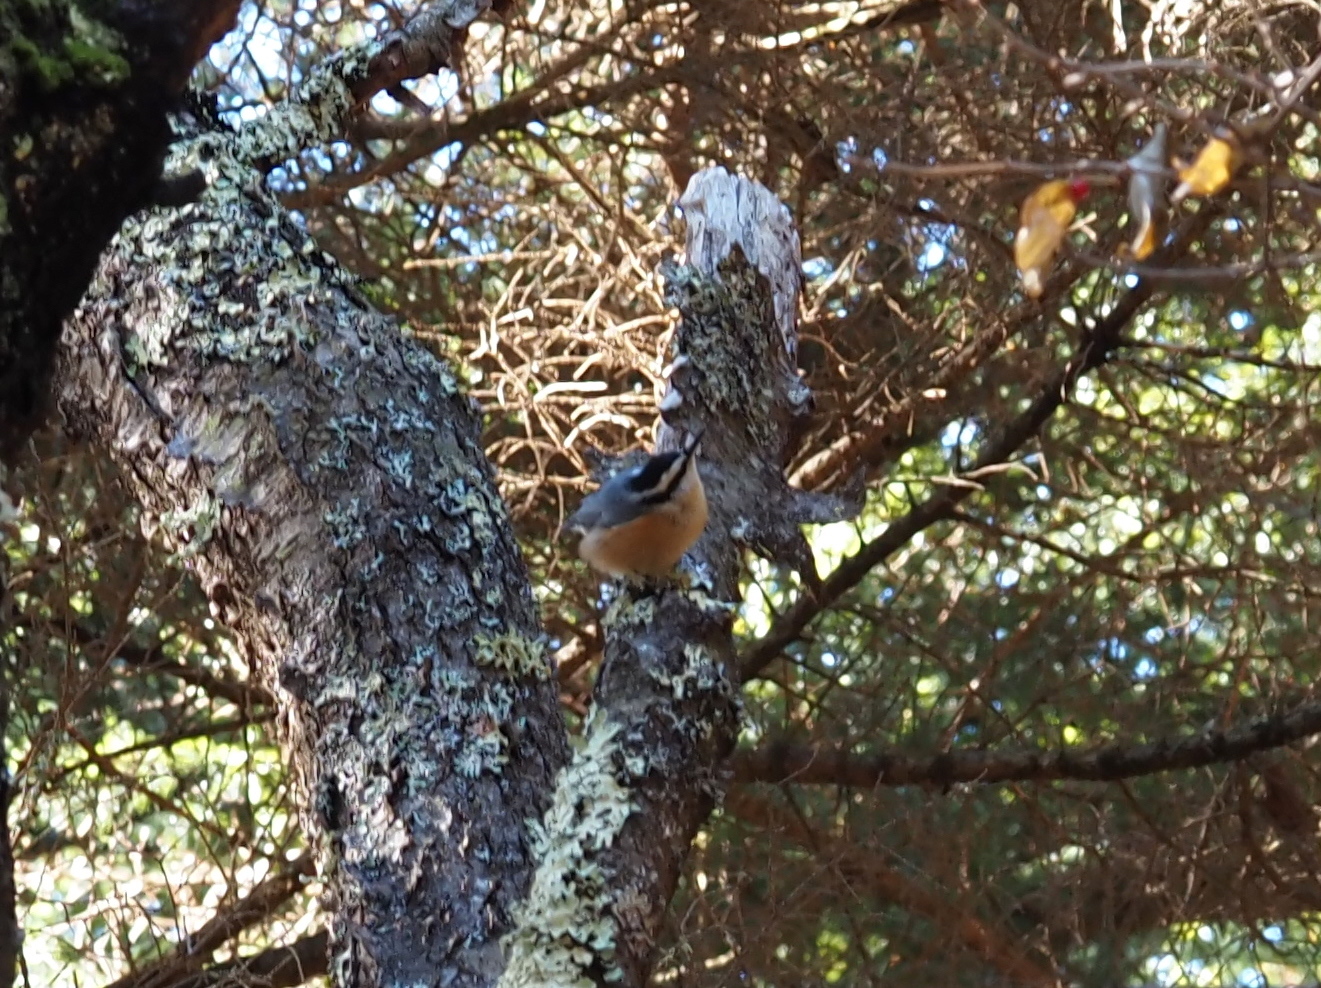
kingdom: Animalia
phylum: Chordata
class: Aves
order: Passeriformes
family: Sittidae
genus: Sitta
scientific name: Sitta canadensis
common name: Red-breasted nuthatch
